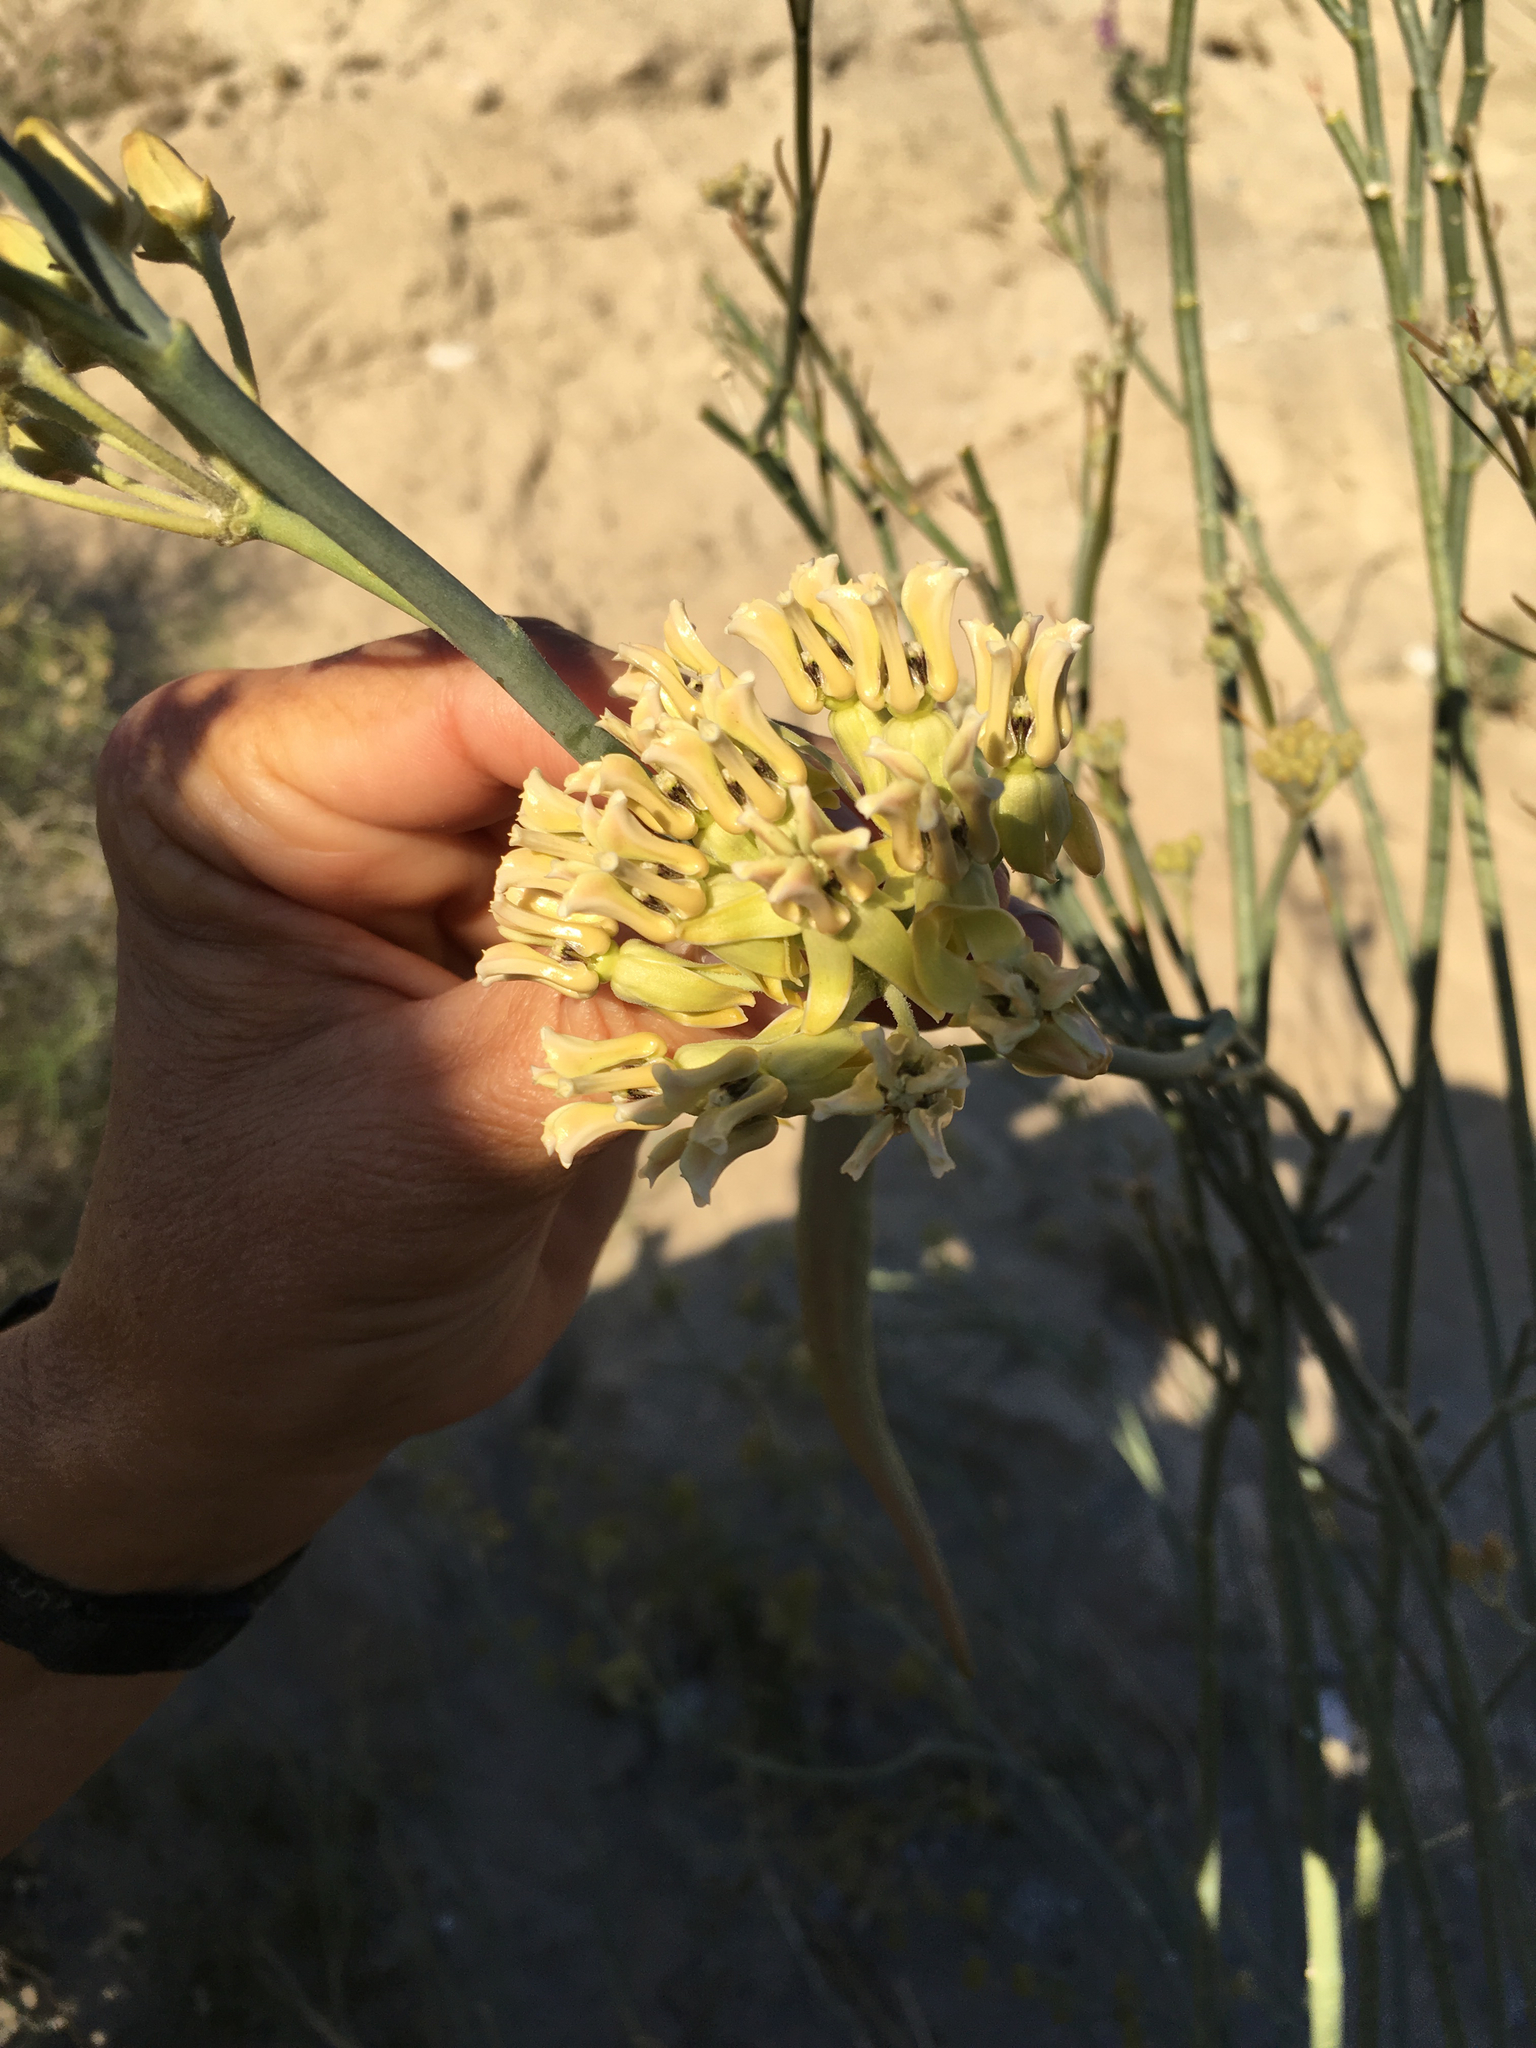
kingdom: Plantae
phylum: Tracheophyta
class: Magnoliopsida
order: Gentianales
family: Apocynaceae
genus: Asclepias
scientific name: Asclepias subulata
